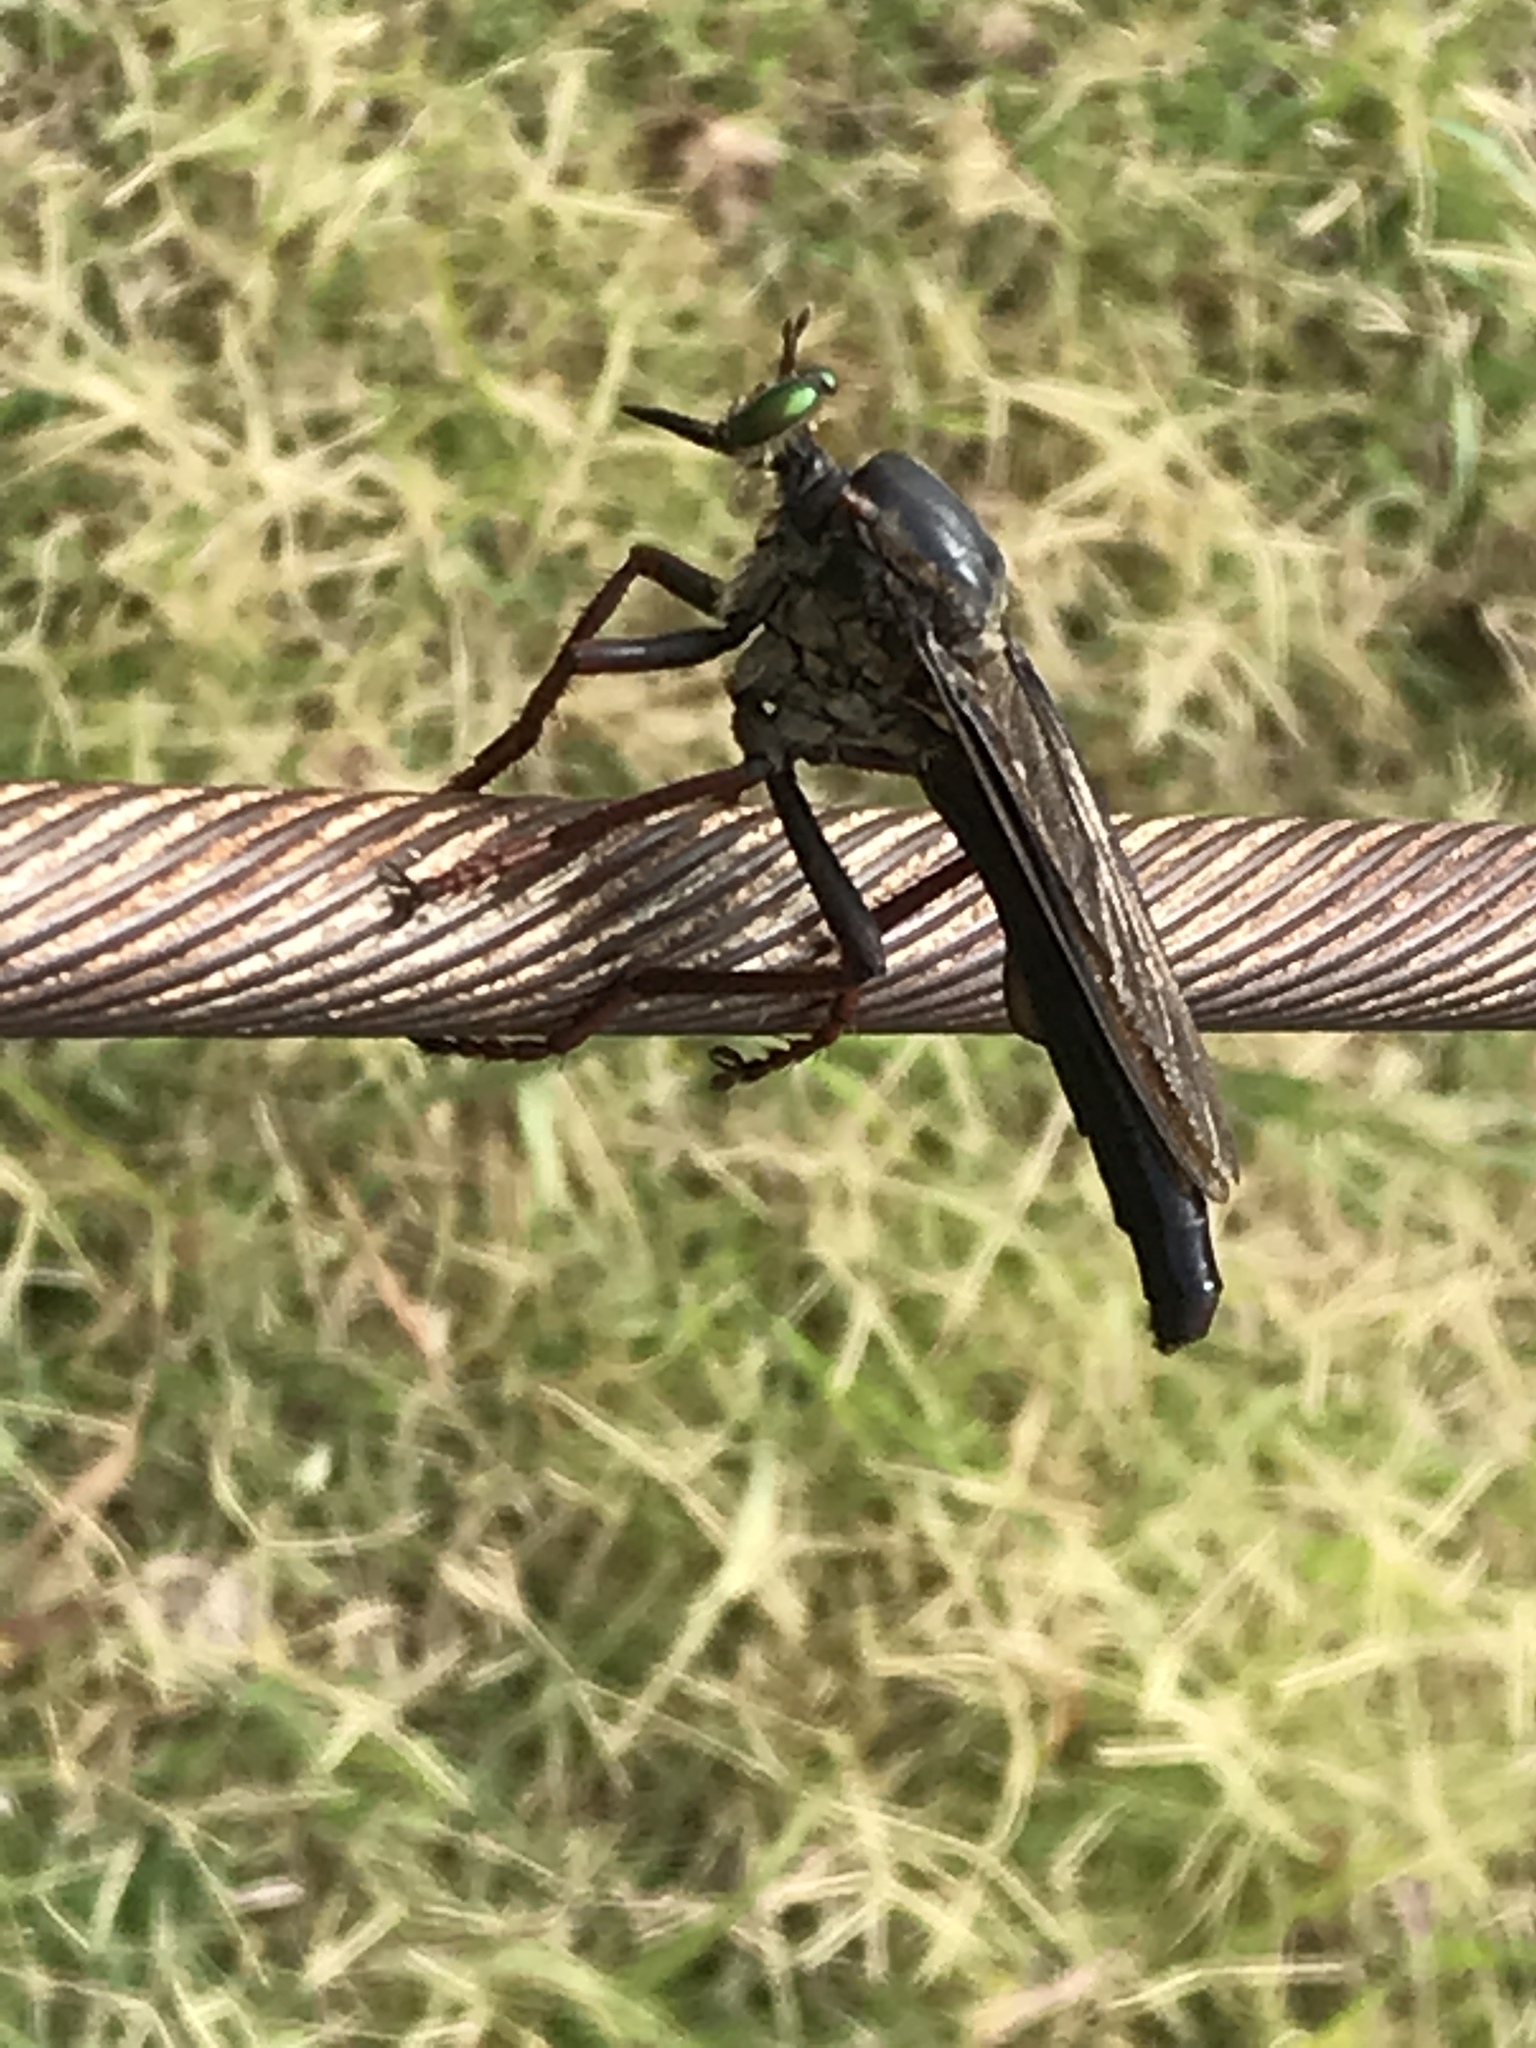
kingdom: Animalia
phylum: Arthropoda
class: Insecta
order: Diptera
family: Asilidae
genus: Microstylum
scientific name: Microstylum morosum
